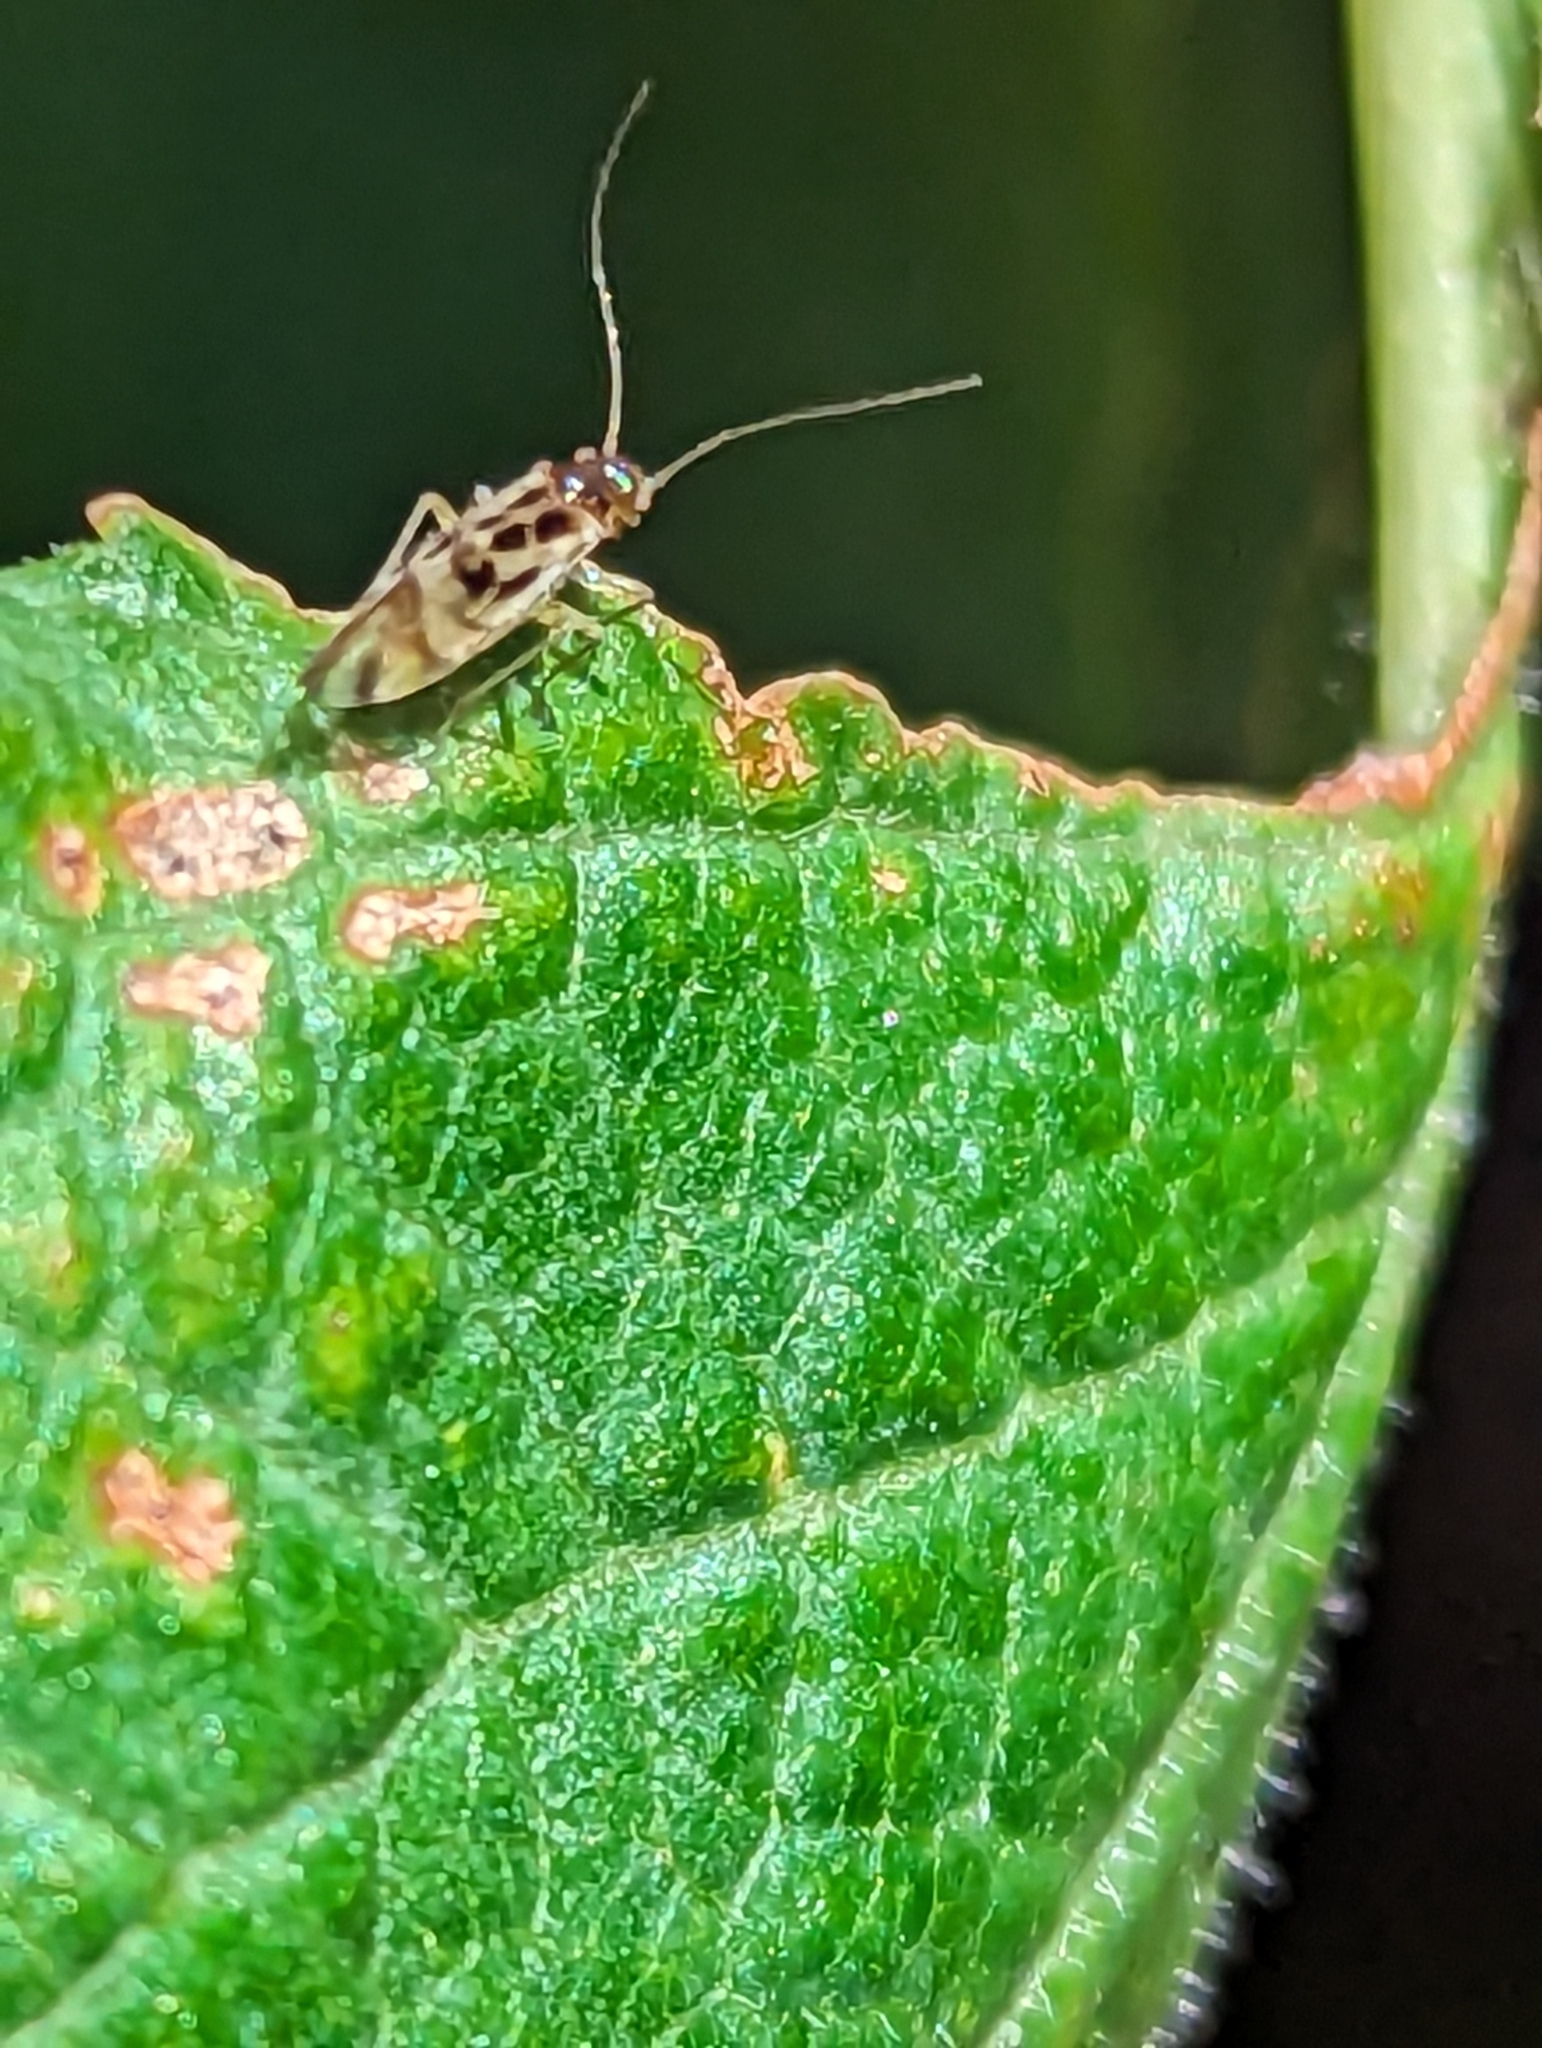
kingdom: Animalia
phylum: Arthropoda
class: Insecta
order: Psocodea
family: Stenopsocidae
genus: Graphopsocus
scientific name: Graphopsocus cruciatus
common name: Lizard bark louse
